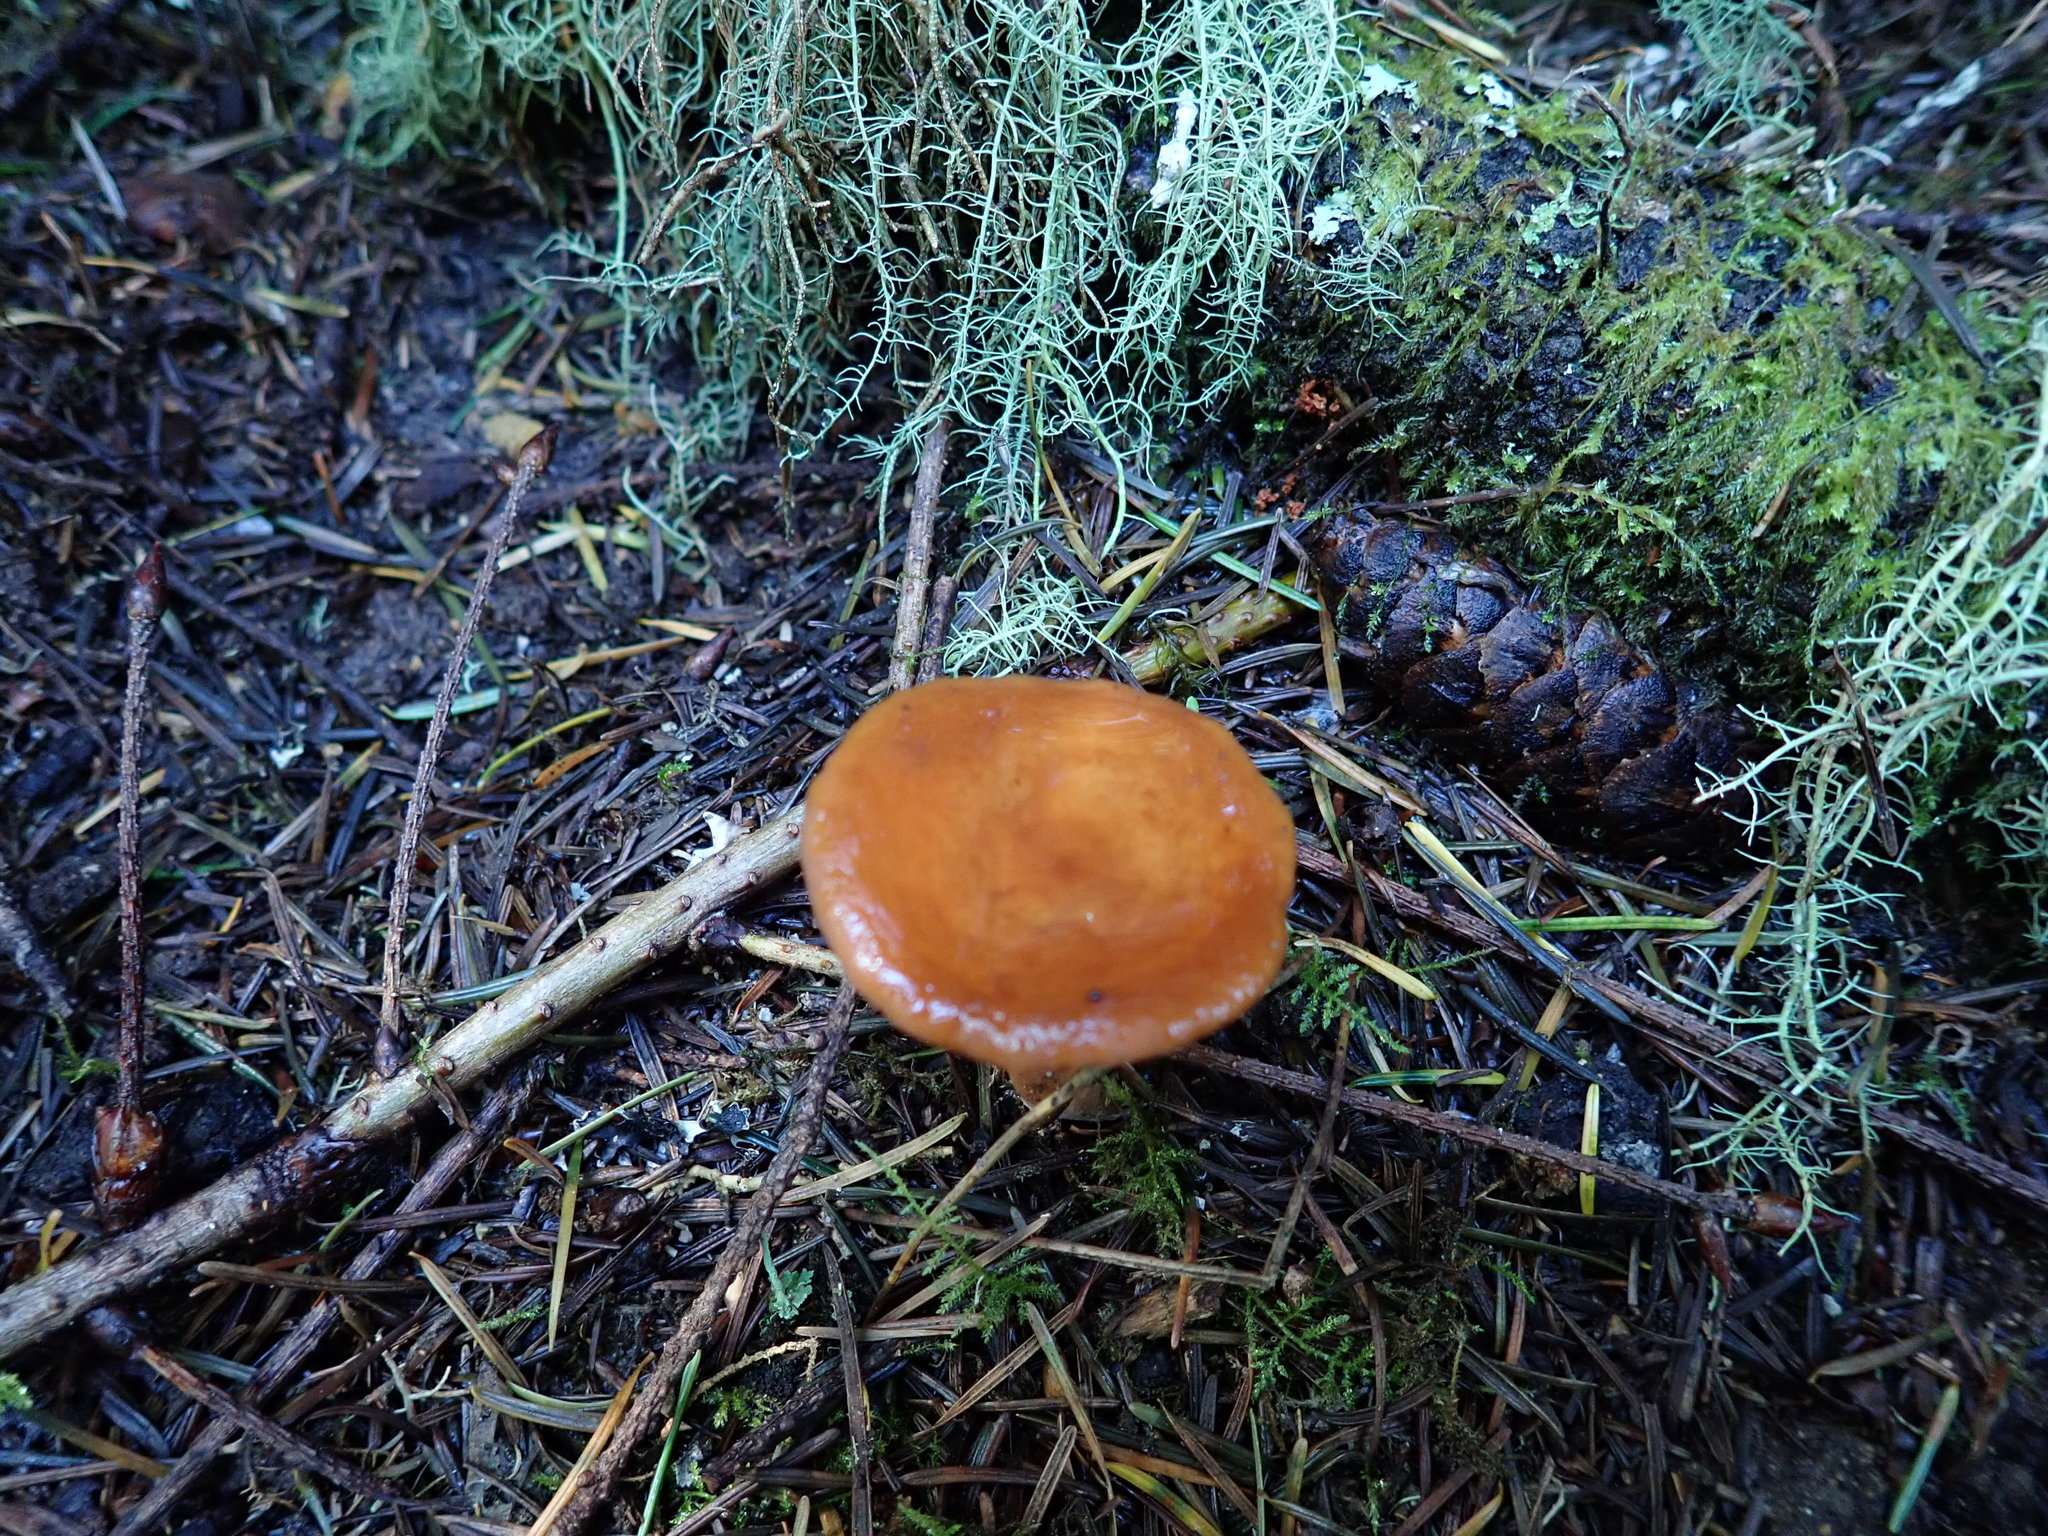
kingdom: Fungi
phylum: Basidiomycota
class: Agaricomycetes
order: Russulales
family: Russulaceae
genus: Lactarius
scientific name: Lactarius rubidus
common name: Candy cap
